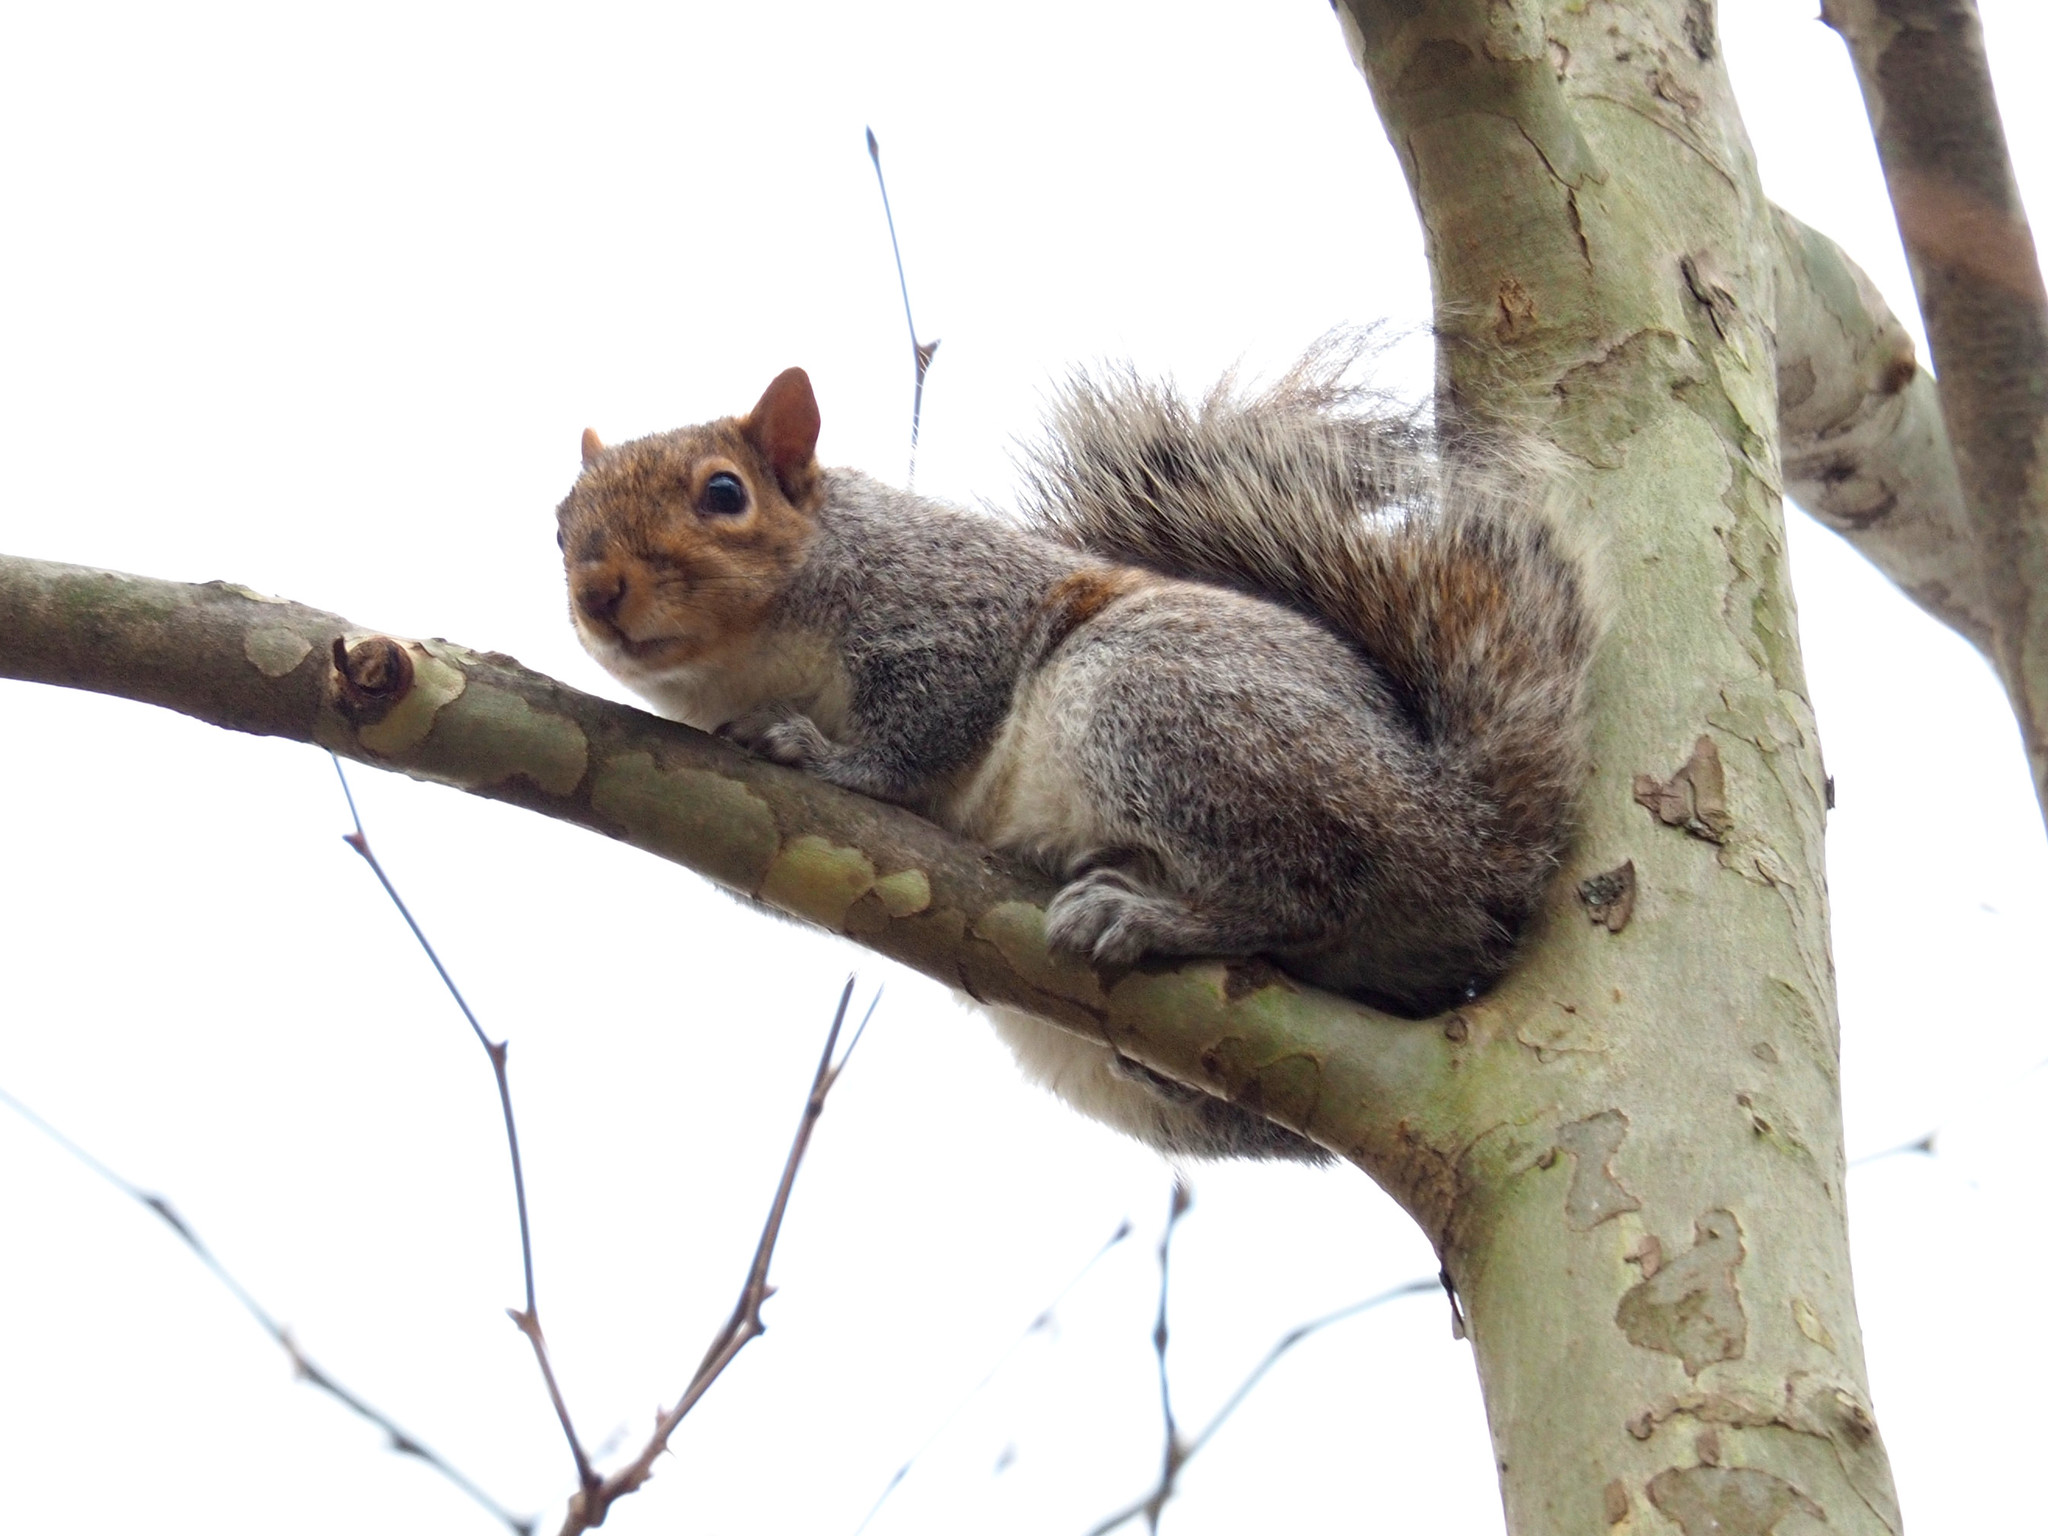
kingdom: Animalia
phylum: Chordata
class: Mammalia
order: Rodentia
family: Sciuridae
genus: Sciurus
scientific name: Sciurus carolinensis
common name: Eastern gray squirrel
